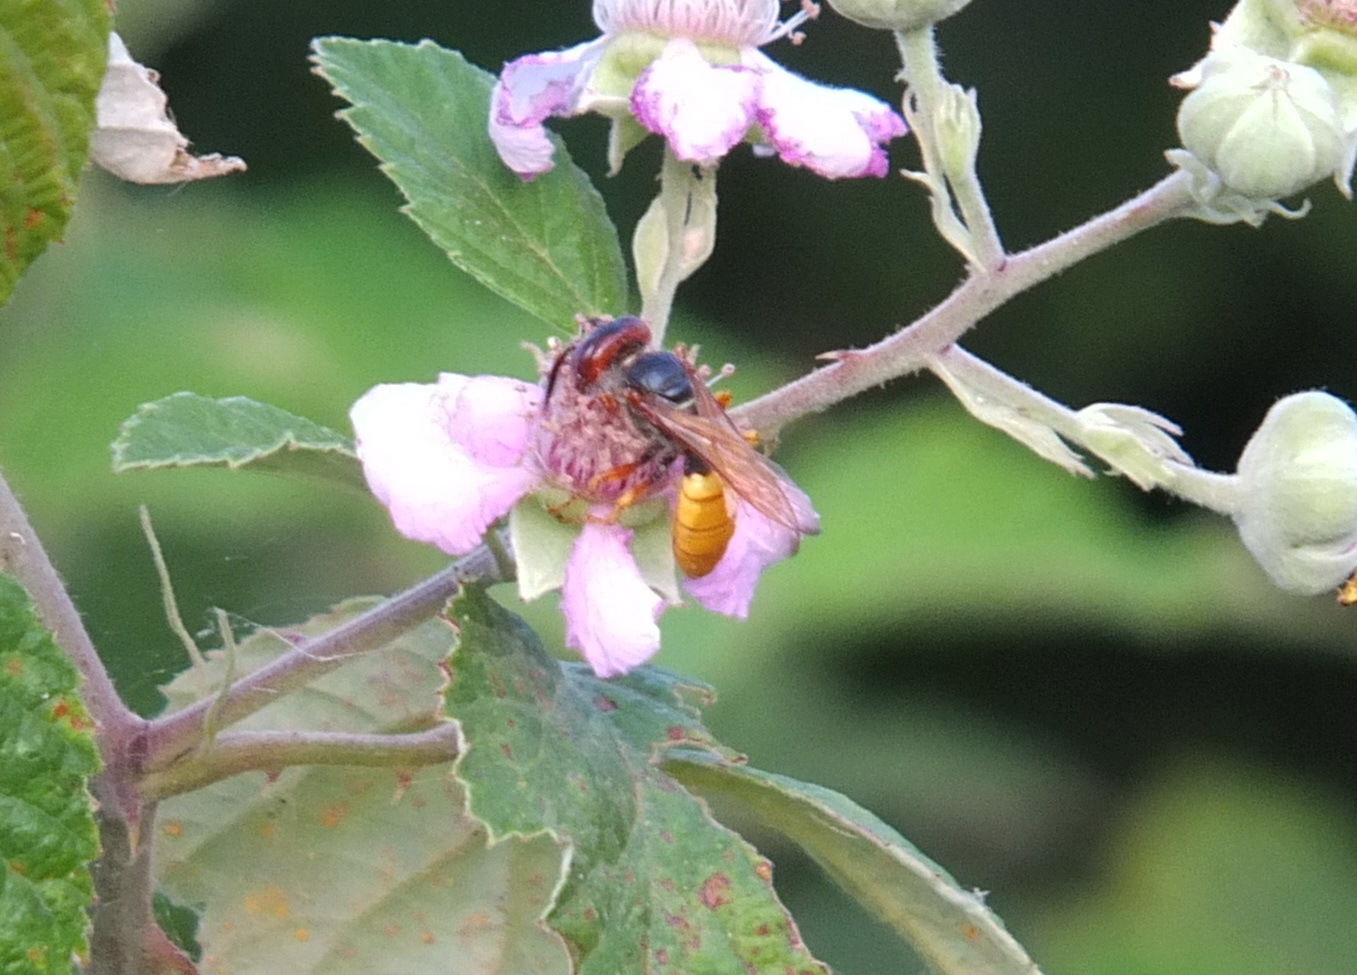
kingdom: Animalia
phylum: Arthropoda
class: Insecta
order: Hymenoptera
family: Crabronidae
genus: Philanthus
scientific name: Philanthus triangulum
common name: Bee wolf
